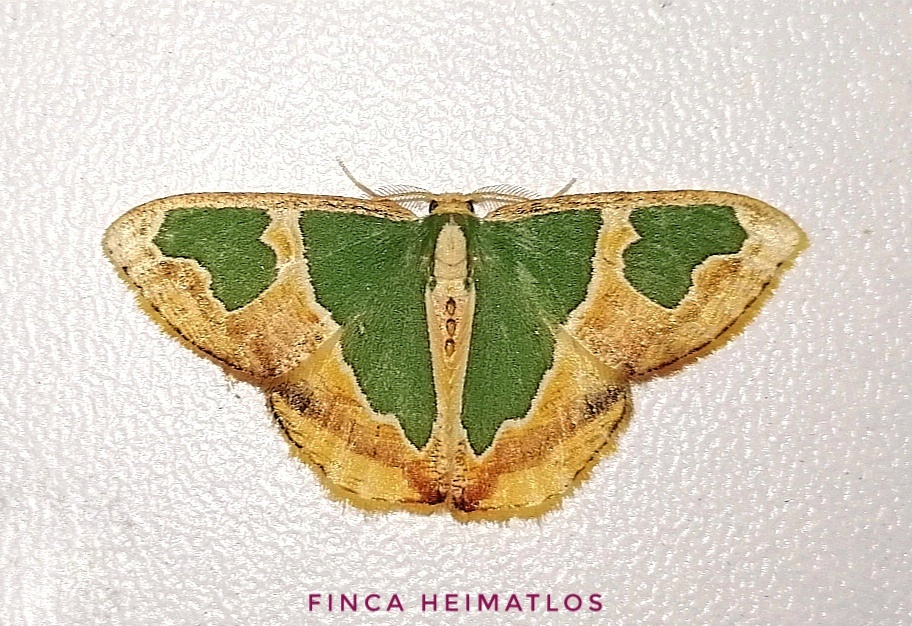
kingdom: Animalia
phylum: Arthropoda
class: Insecta
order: Lepidoptera
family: Geometridae
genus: Oospila
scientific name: Oospila venezuelata
